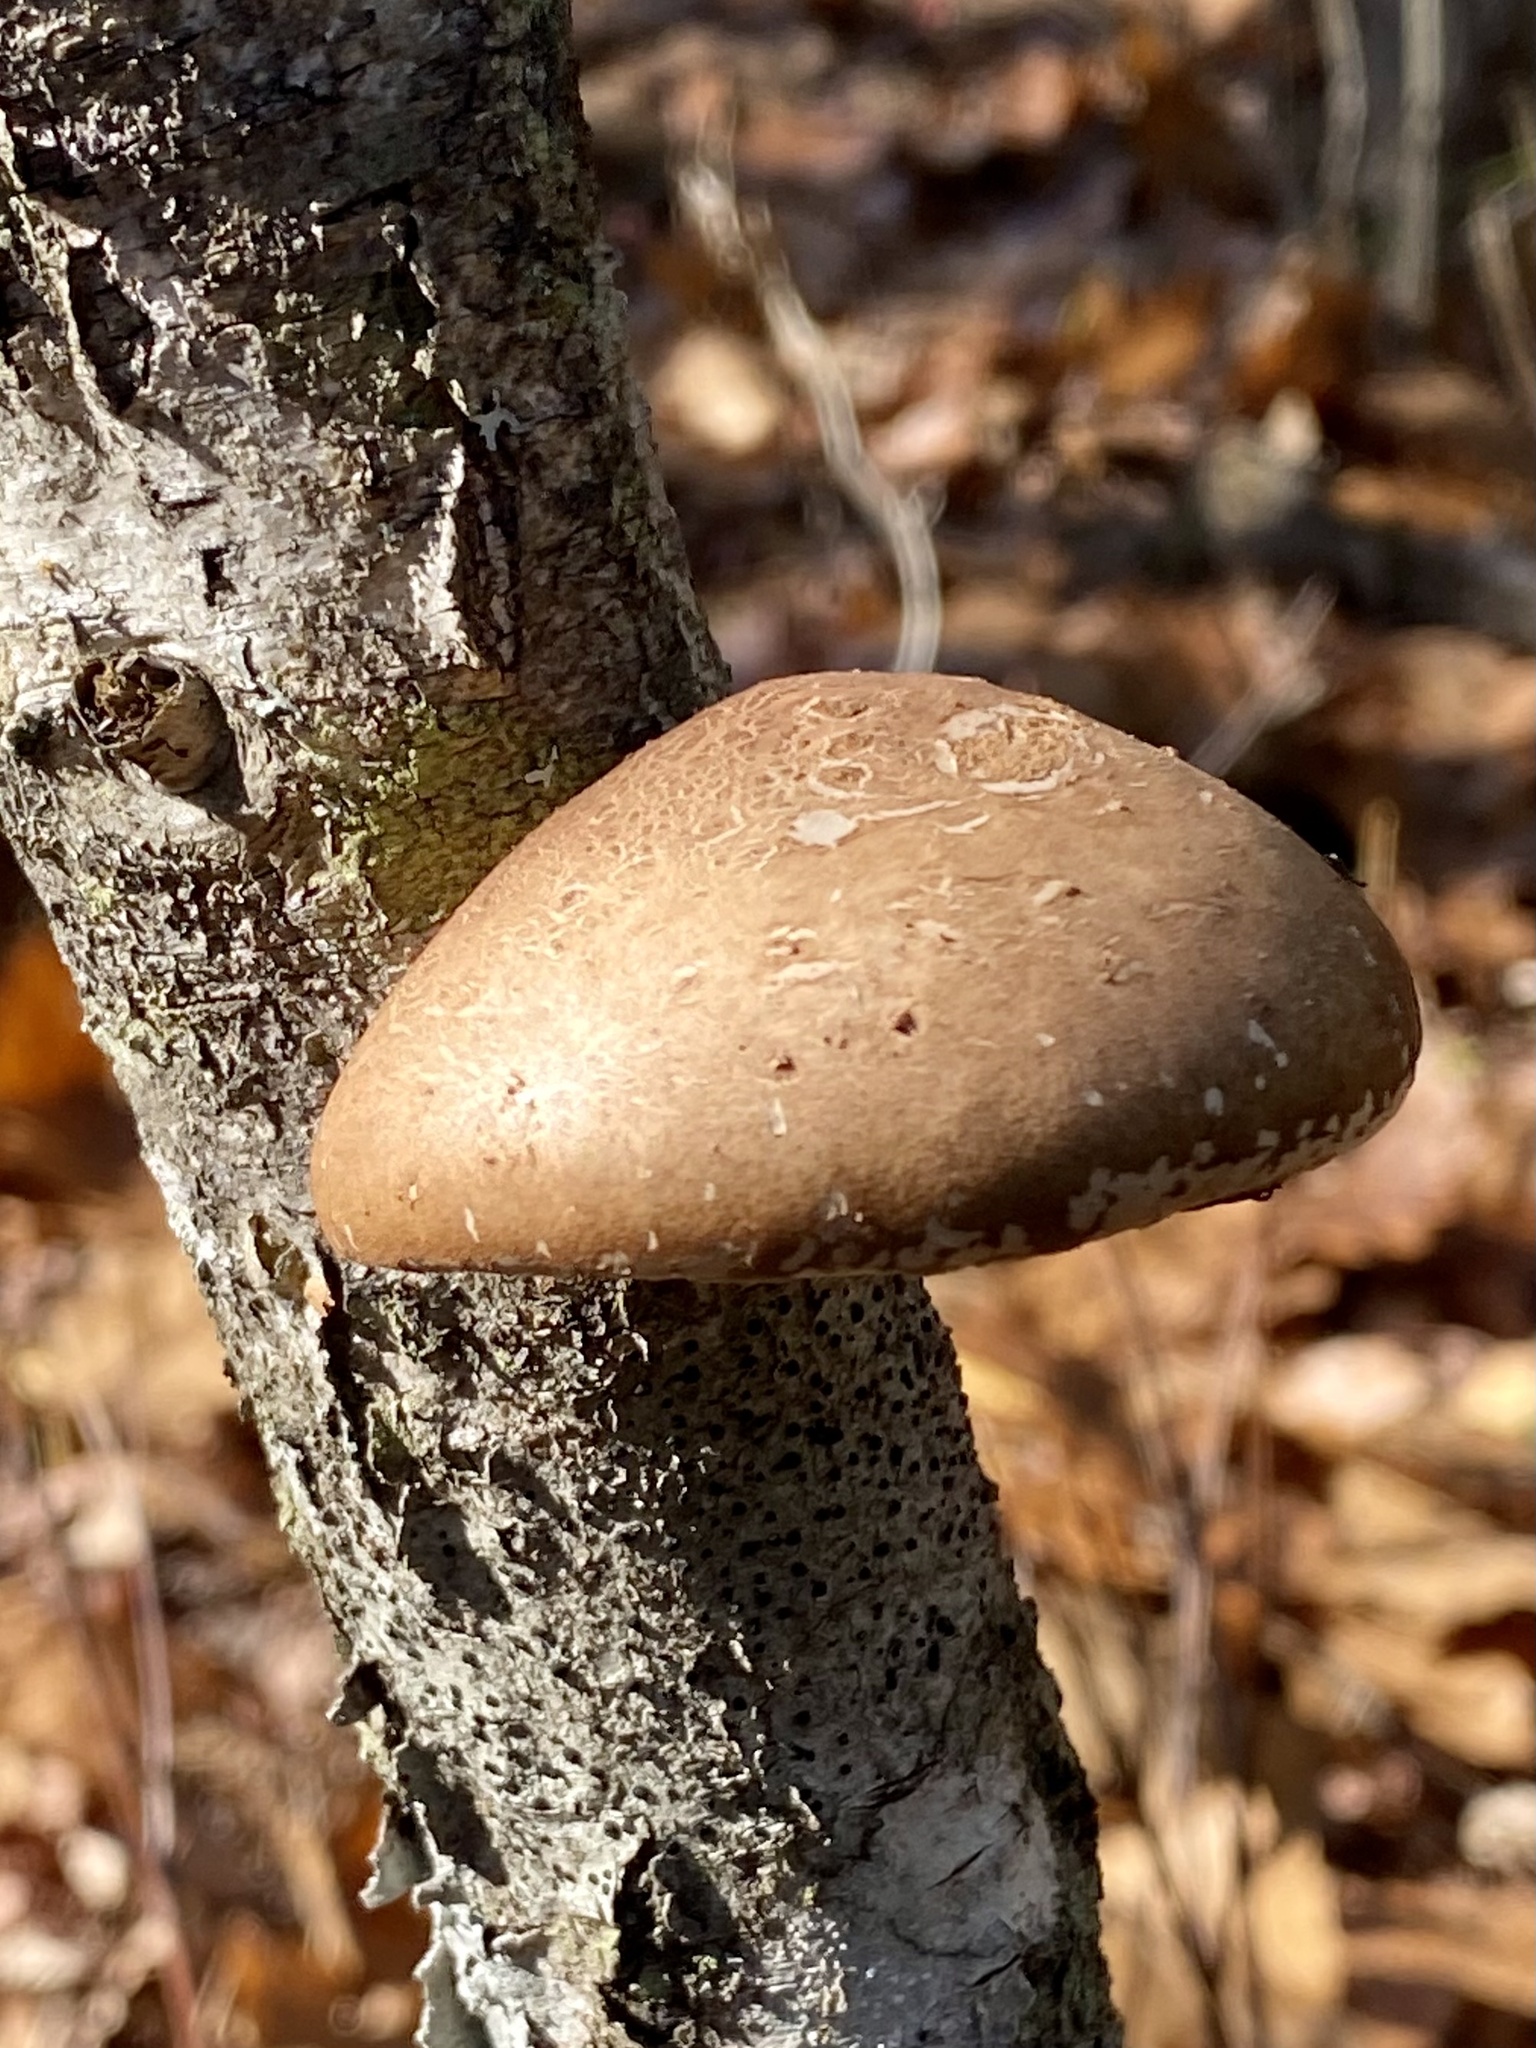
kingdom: Fungi
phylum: Basidiomycota
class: Agaricomycetes
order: Polyporales
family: Fomitopsidaceae
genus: Fomitopsis
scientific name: Fomitopsis betulina
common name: Birch polypore
